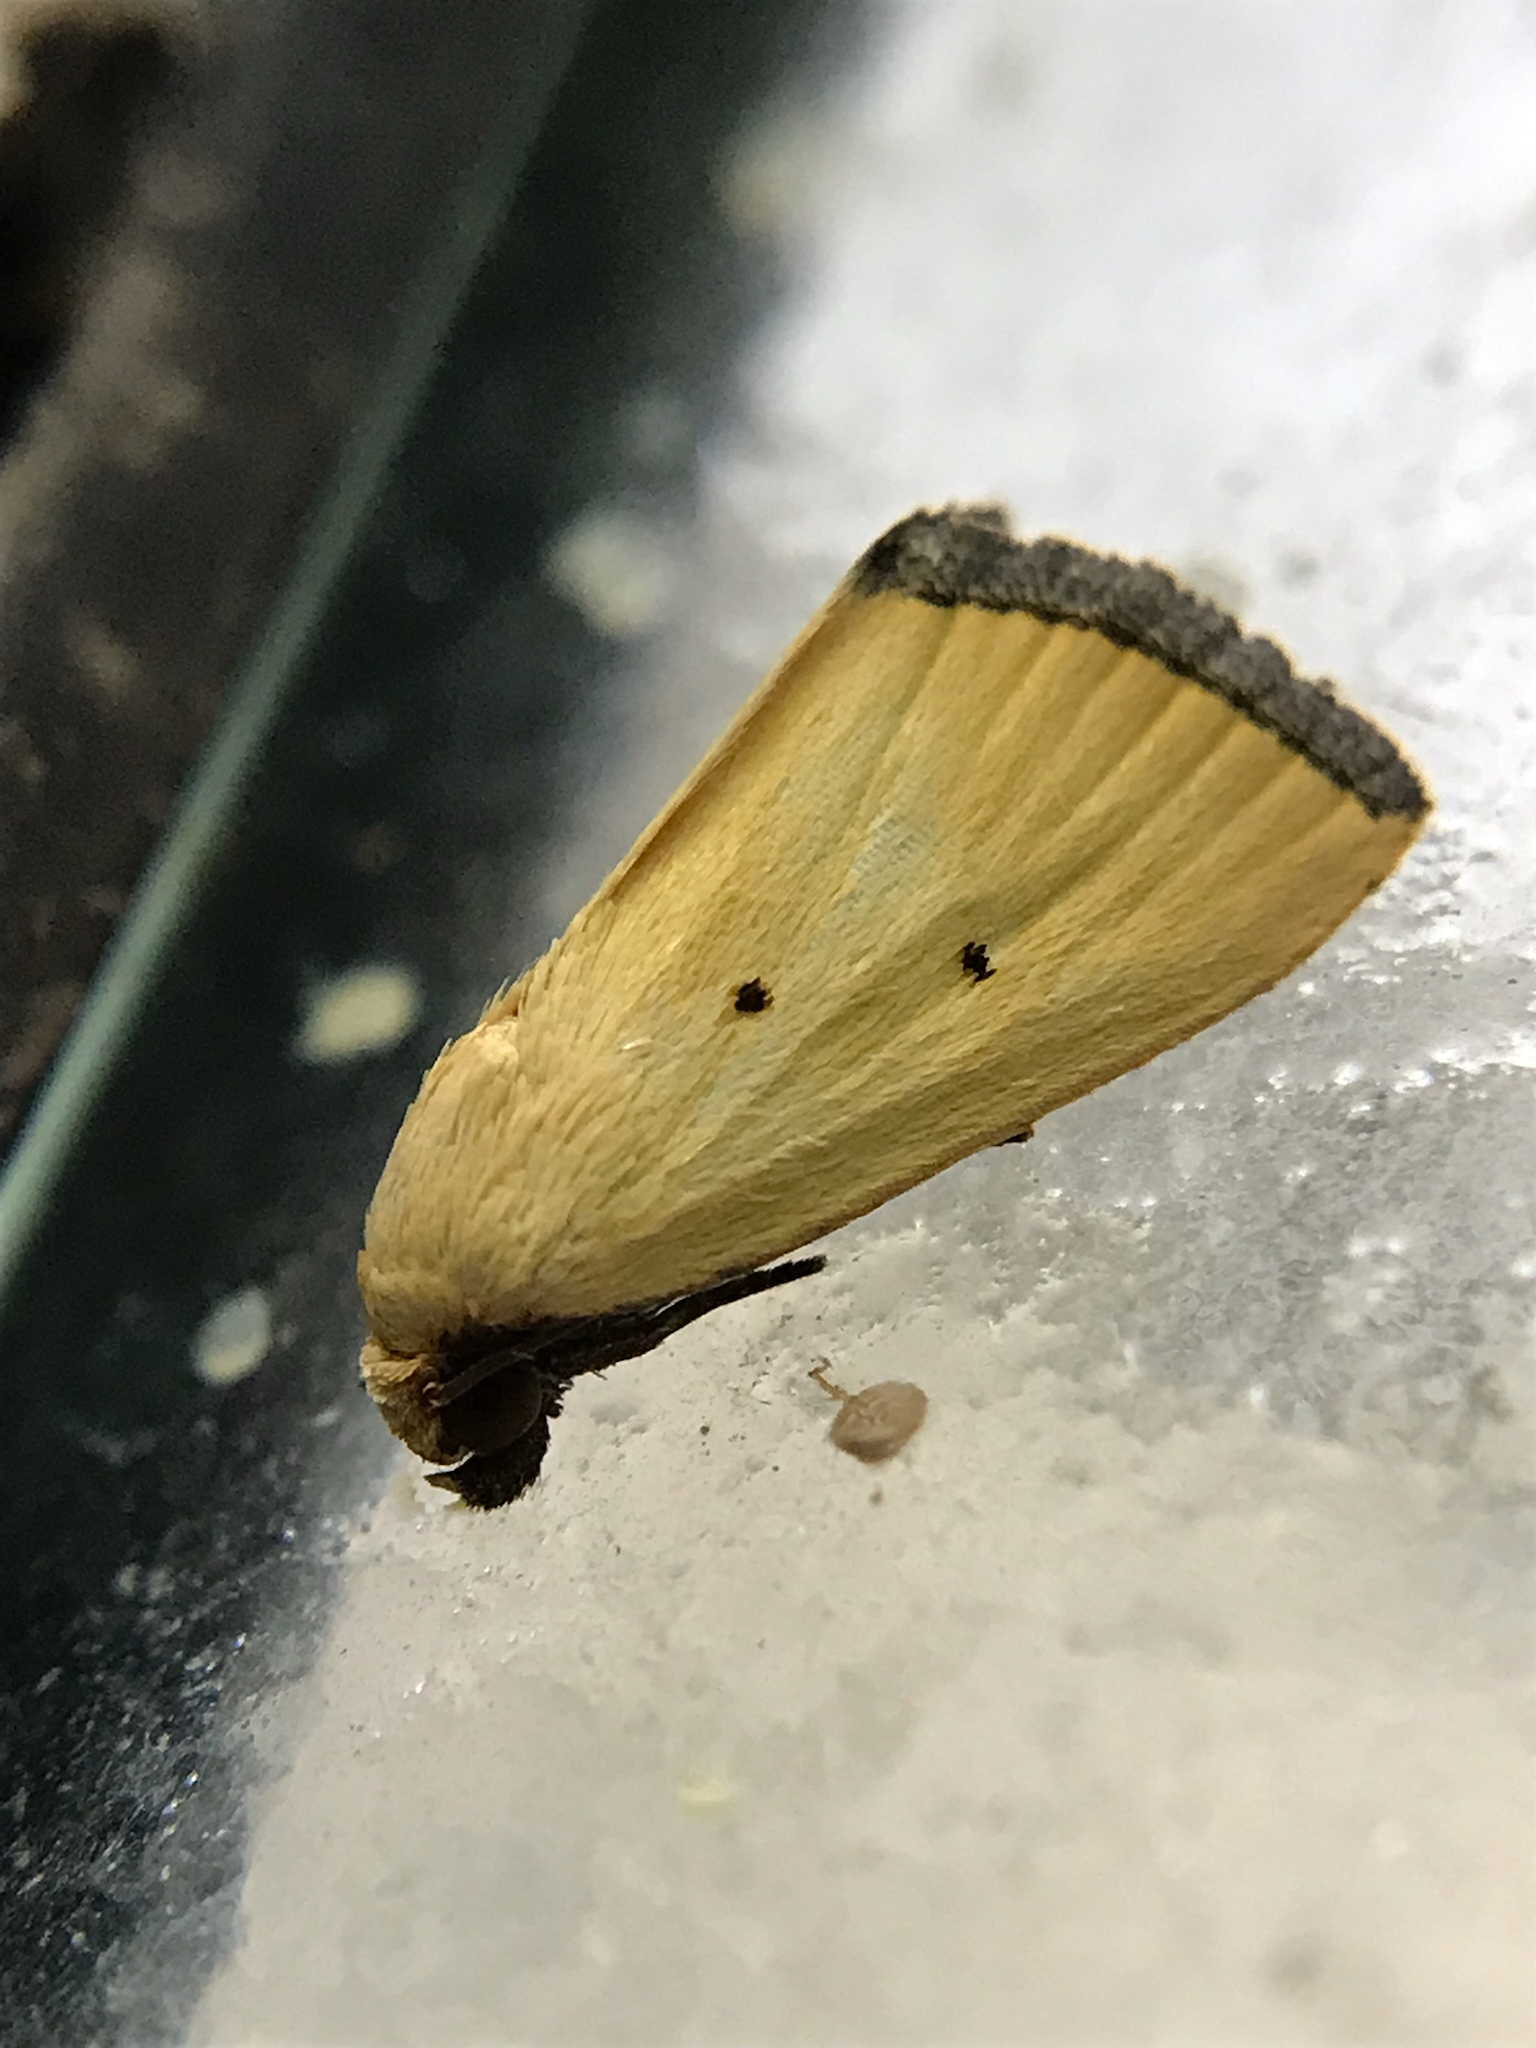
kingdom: Animalia
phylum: Arthropoda
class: Insecta
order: Lepidoptera
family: Noctuidae
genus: Marimatha
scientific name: Marimatha nigrofimbria
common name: Black-bordered lemon moth
